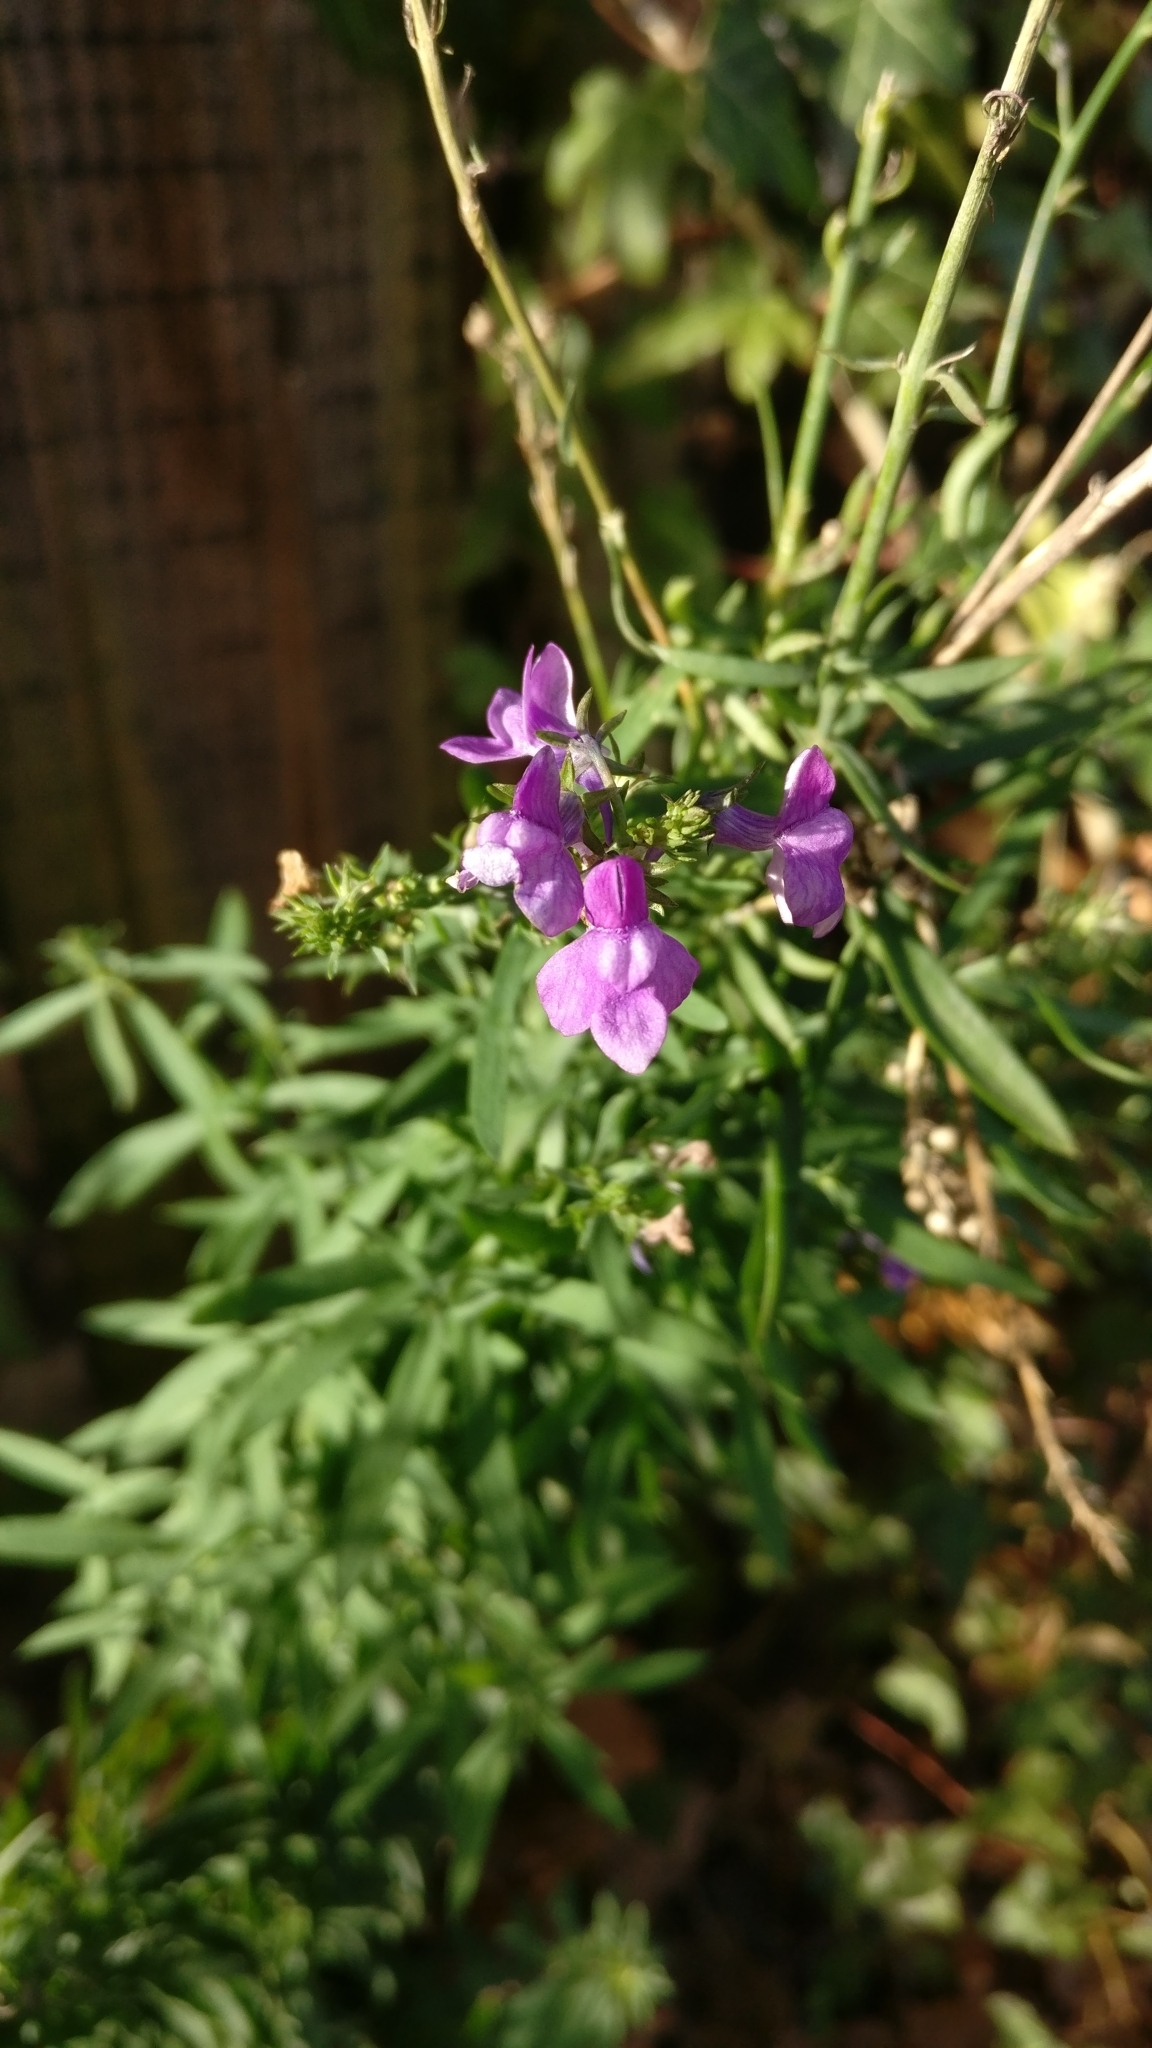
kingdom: Plantae
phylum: Tracheophyta
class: Magnoliopsida
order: Lamiales
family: Plantaginaceae
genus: Linaria
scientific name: Linaria purpurea
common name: Purple toadflax
